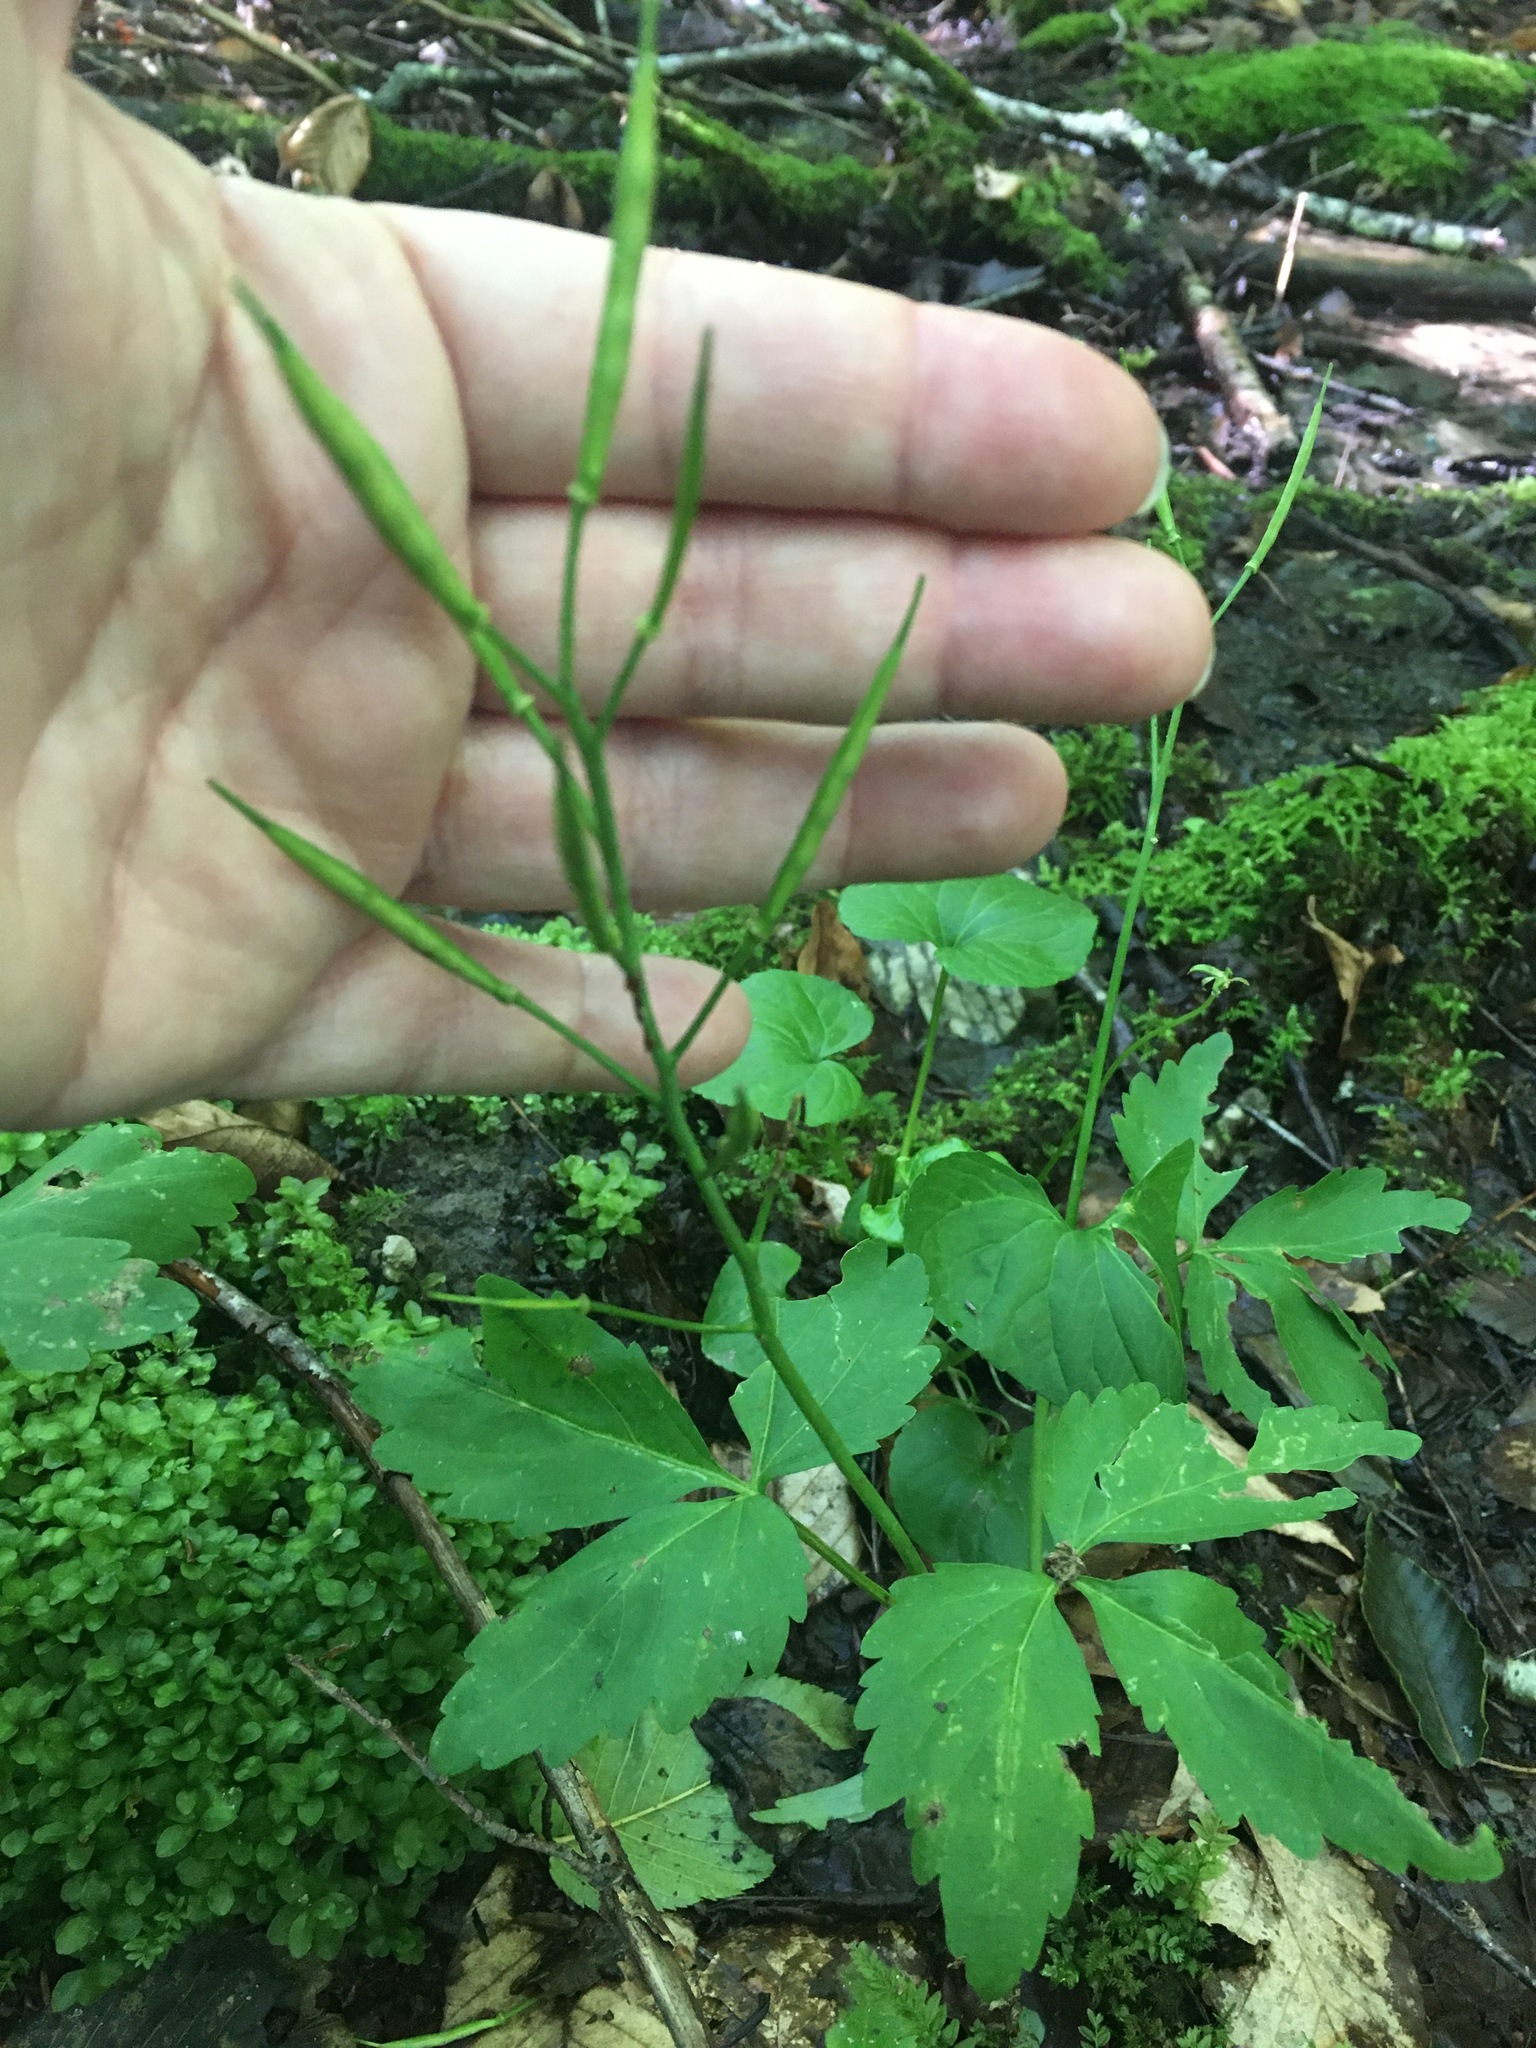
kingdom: Plantae
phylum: Tracheophyta
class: Magnoliopsida
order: Brassicales
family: Brassicaceae
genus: Cardamine
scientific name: Cardamine diphylla
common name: Broad-leaved toothwort
